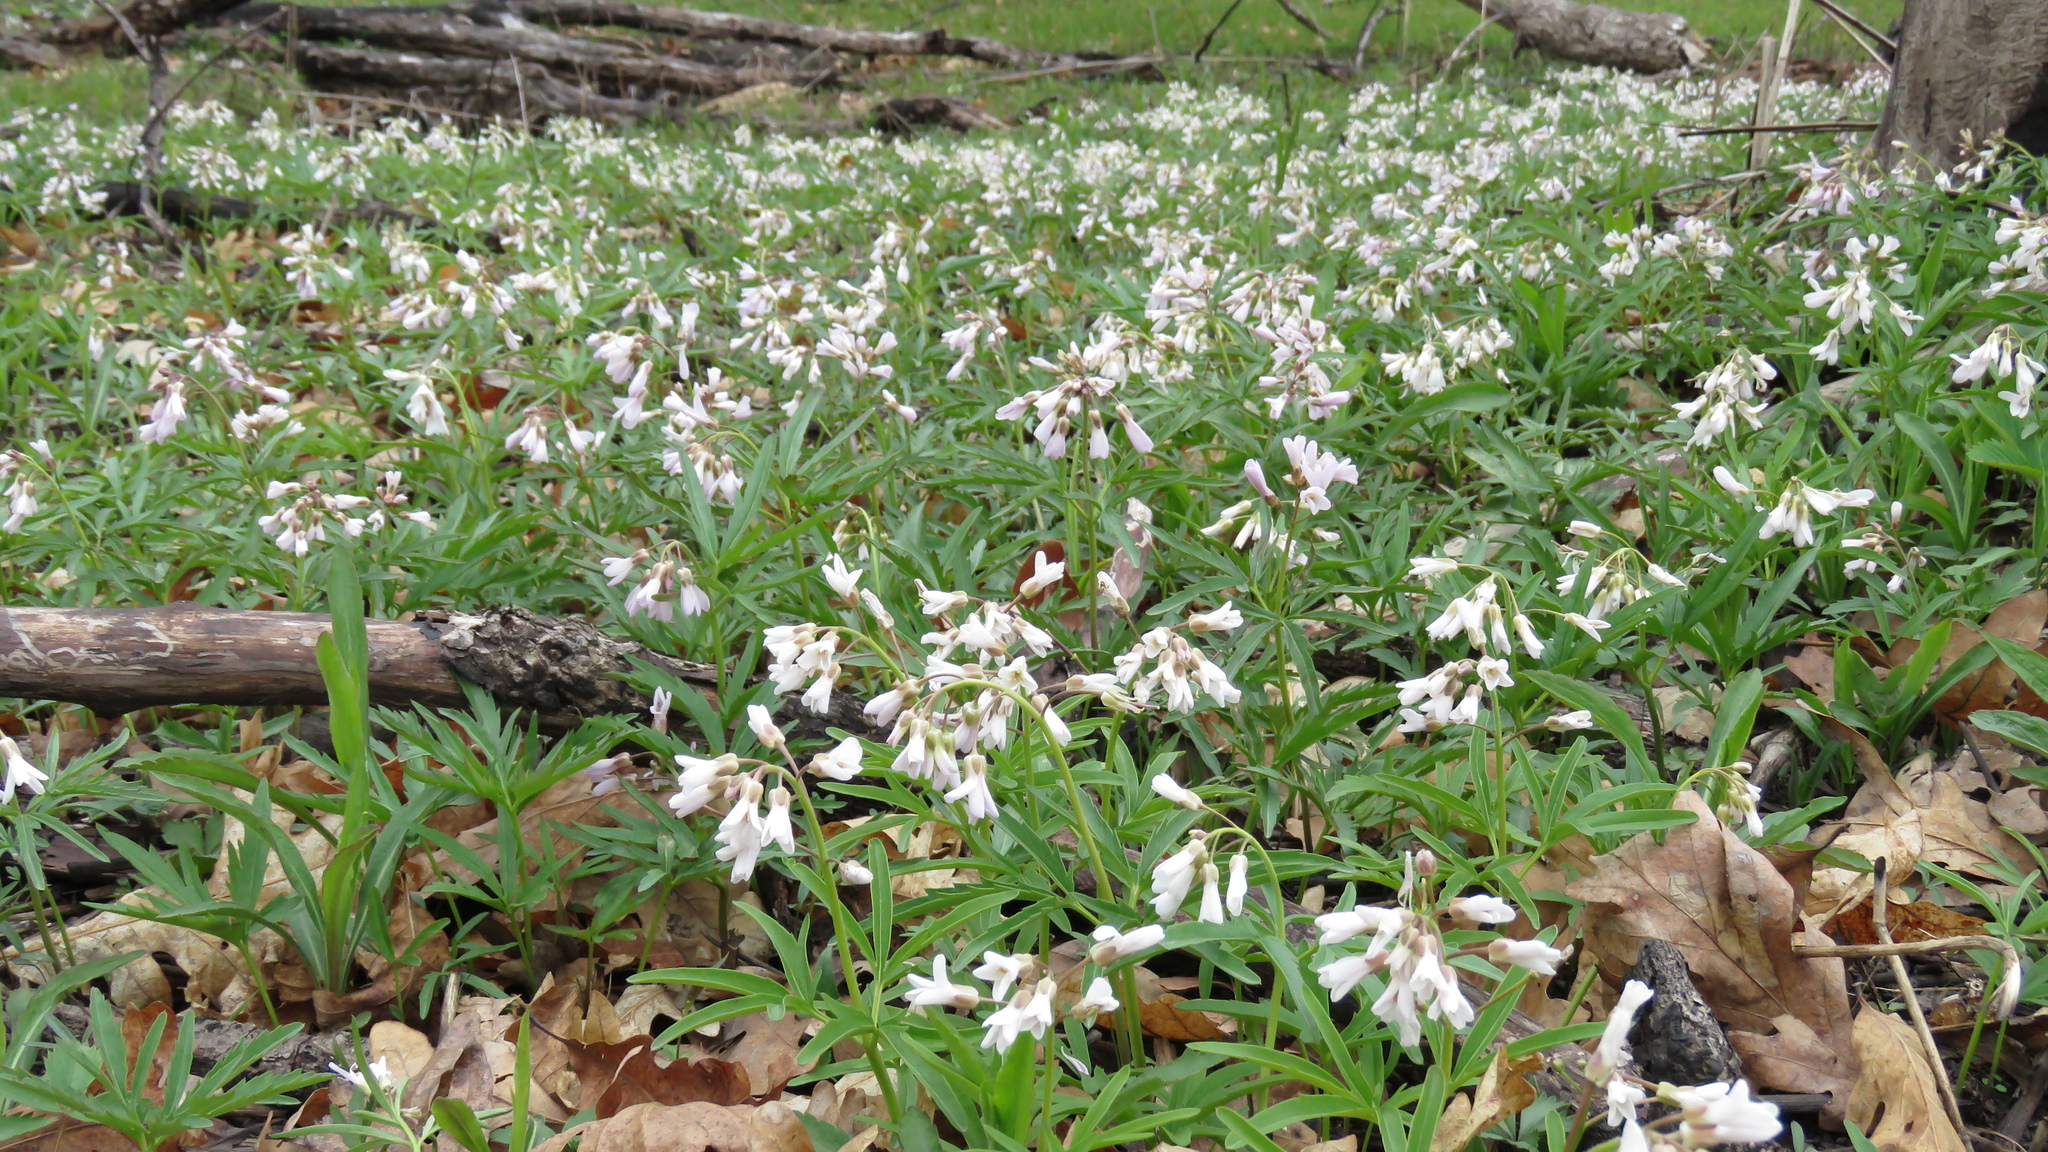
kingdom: Plantae
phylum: Tracheophyta
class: Magnoliopsida
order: Brassicales
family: Brassicaceae
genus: Cardamine
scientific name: Cardamine concatenata
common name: Cut-leaf toothcup
